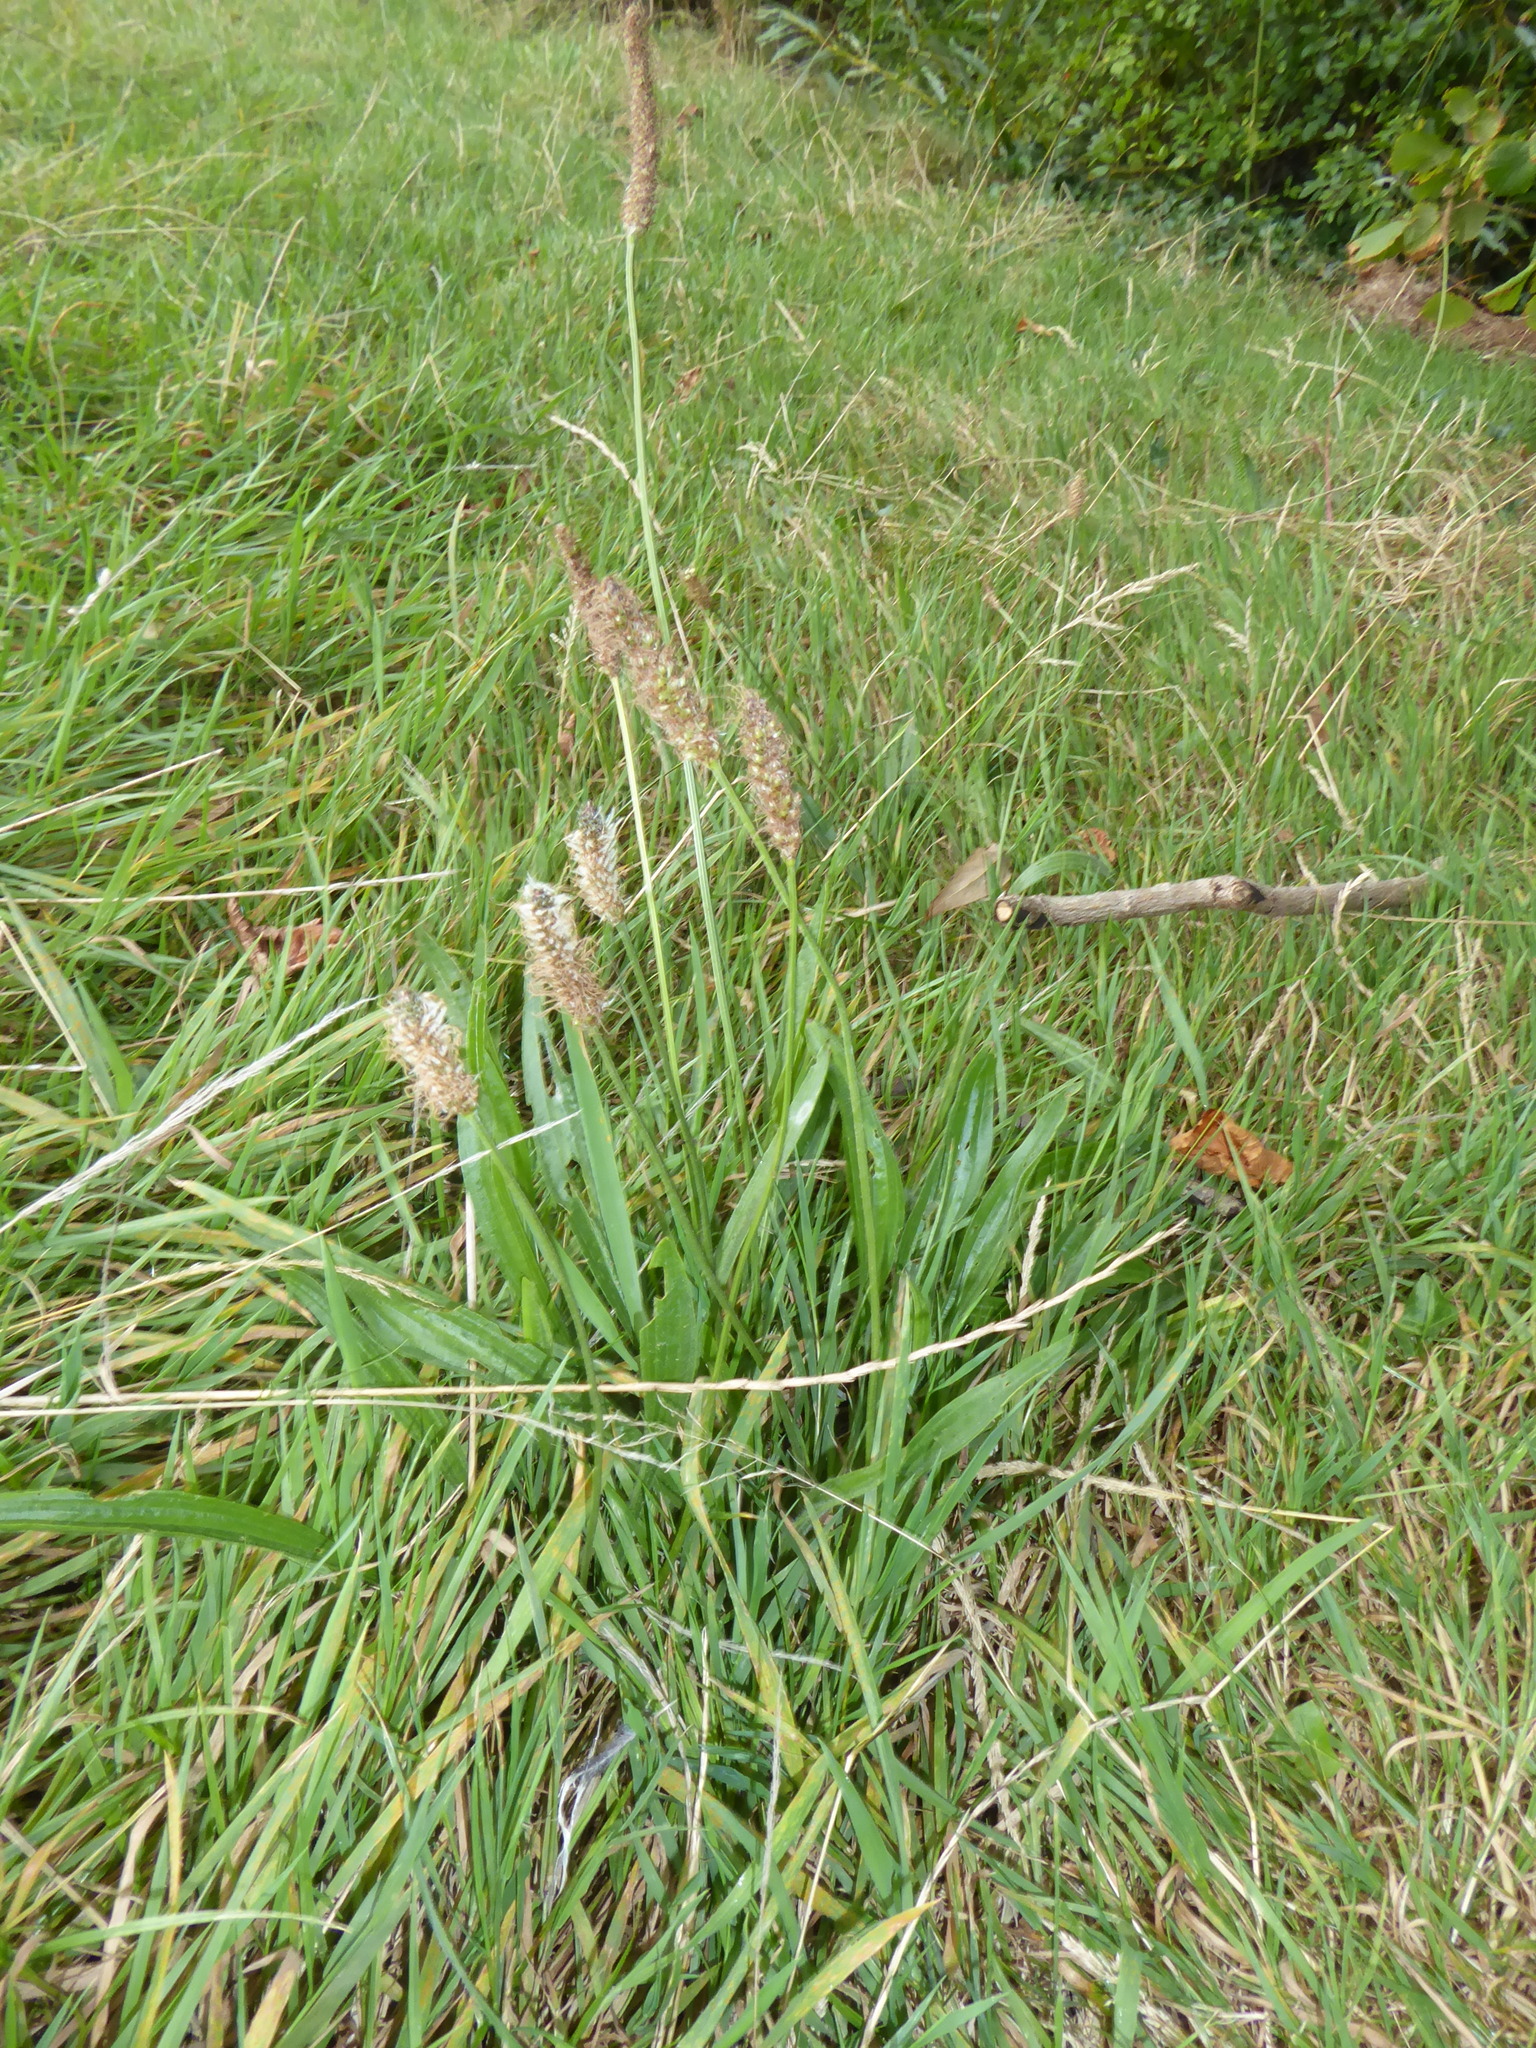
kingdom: Plantae
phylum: Tracheophyta
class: Magnoliopsida
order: Lamiales
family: Plantaginaceae
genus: Plantago
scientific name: Plantago lanceolata
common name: Ribwort plantain
